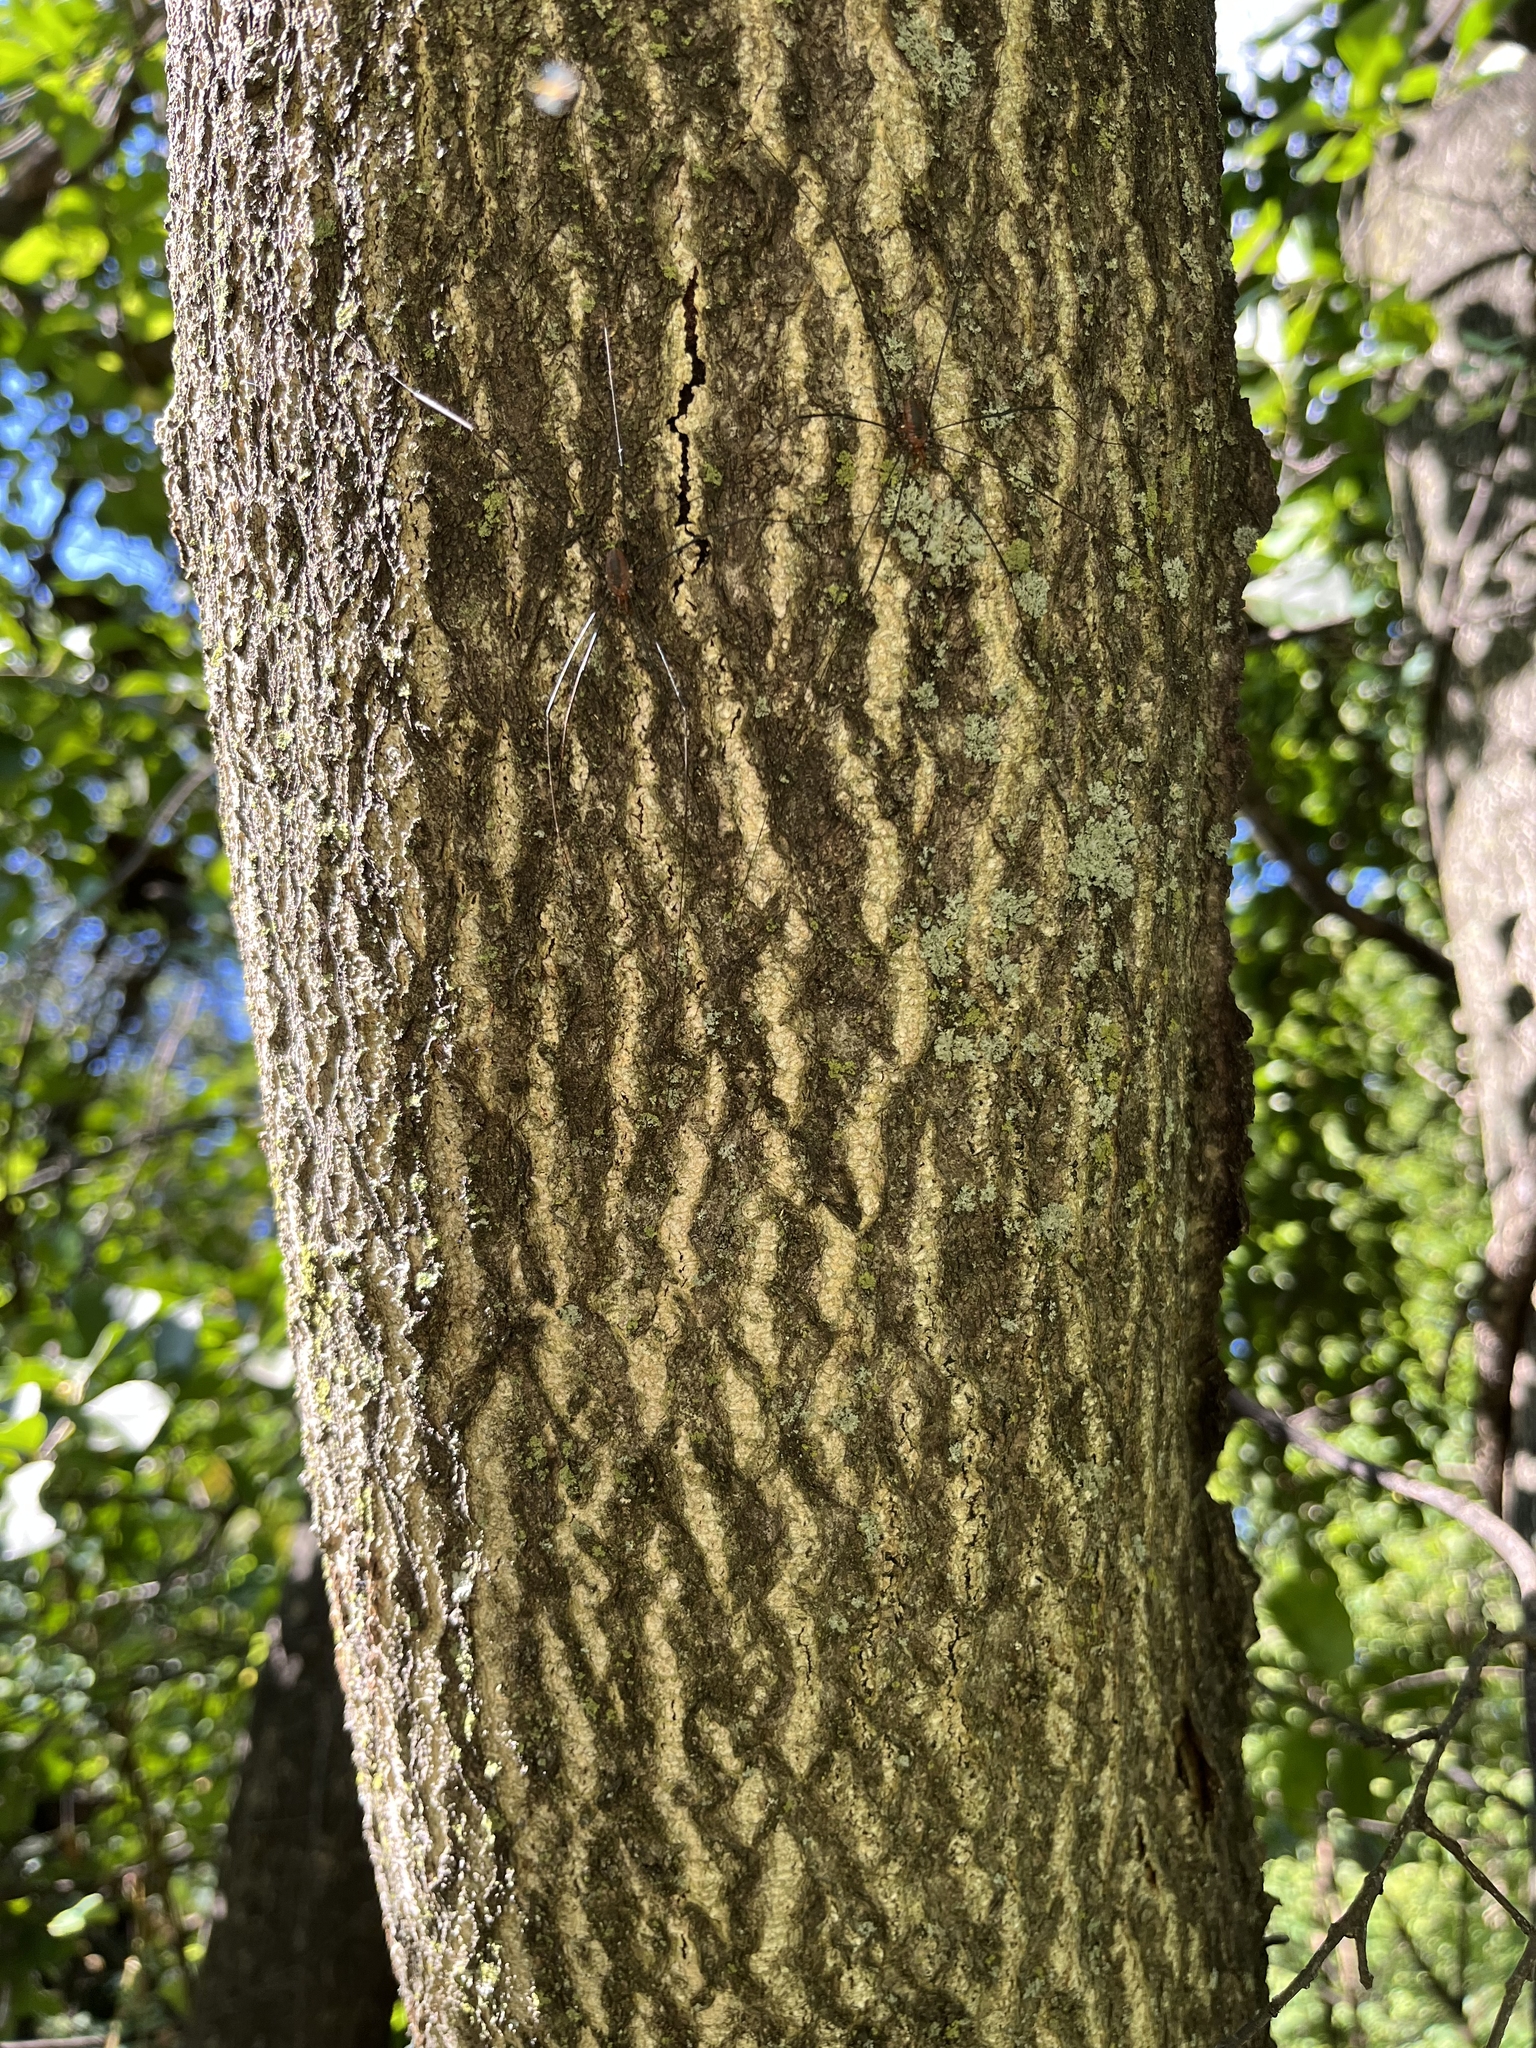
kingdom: Plantae
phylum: Tracheophyta
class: Magnoliopsida
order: Sapindales
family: Simaroubaceae
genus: Ailanthus
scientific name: Ailanthus altissima
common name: Tree-of-heaven
